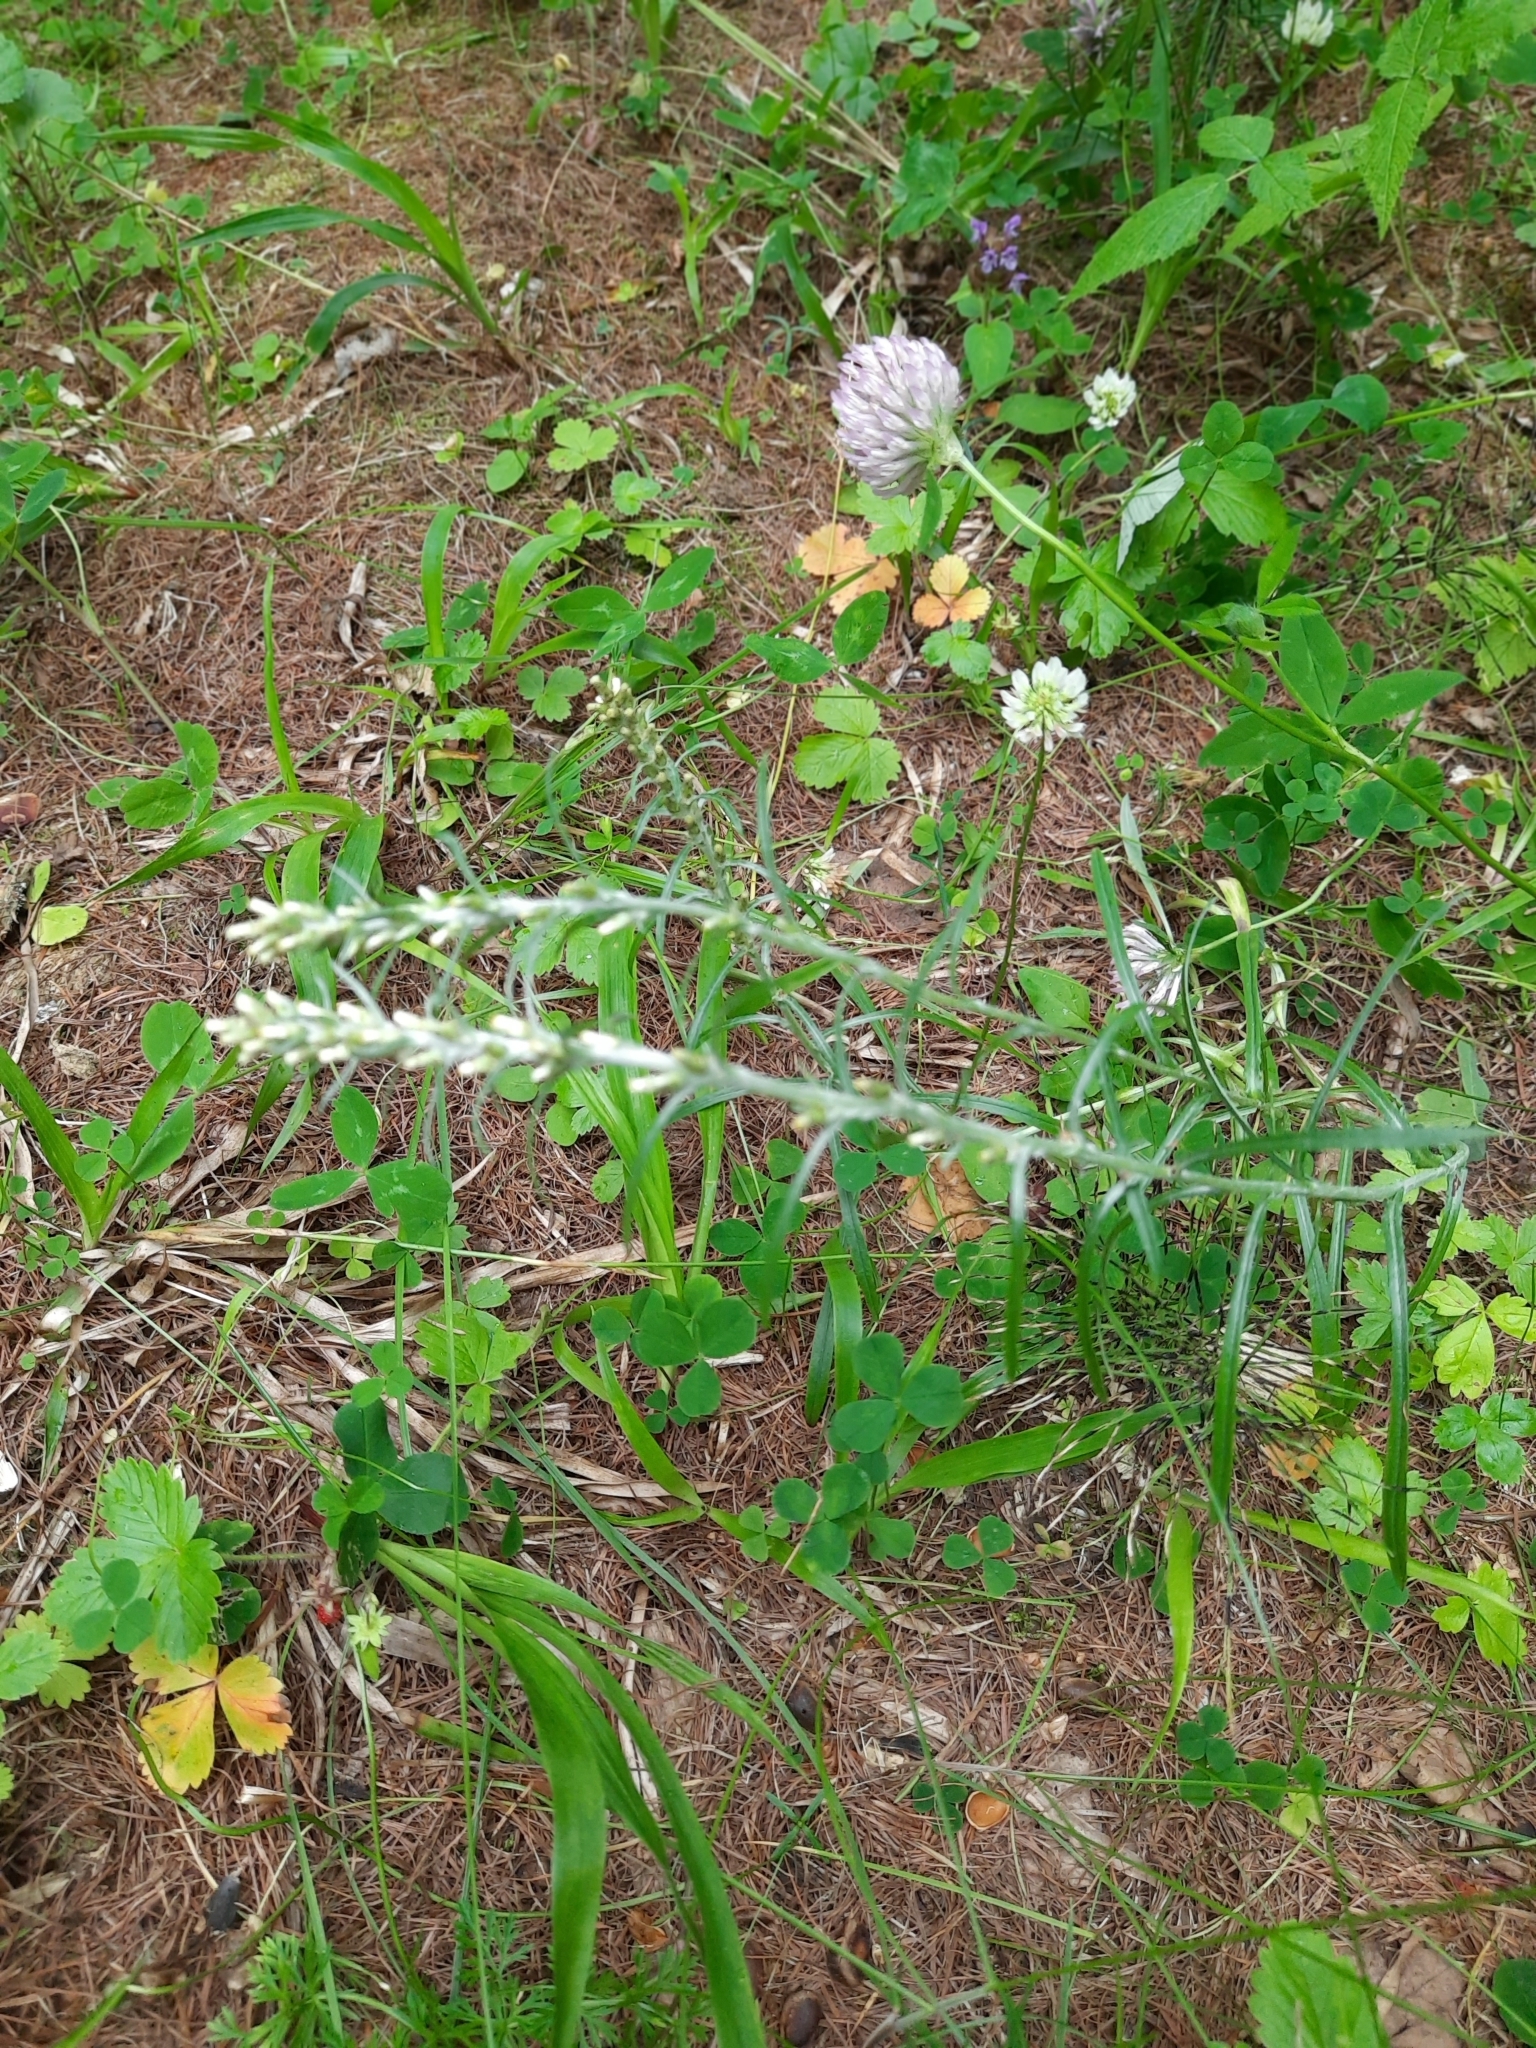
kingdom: Plantae
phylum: Tracheophyta
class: Magnoliopsida
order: Asterales
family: Asteraceae
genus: Omalotheca
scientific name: Omalotheca sylvatica
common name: Heath cudweed
